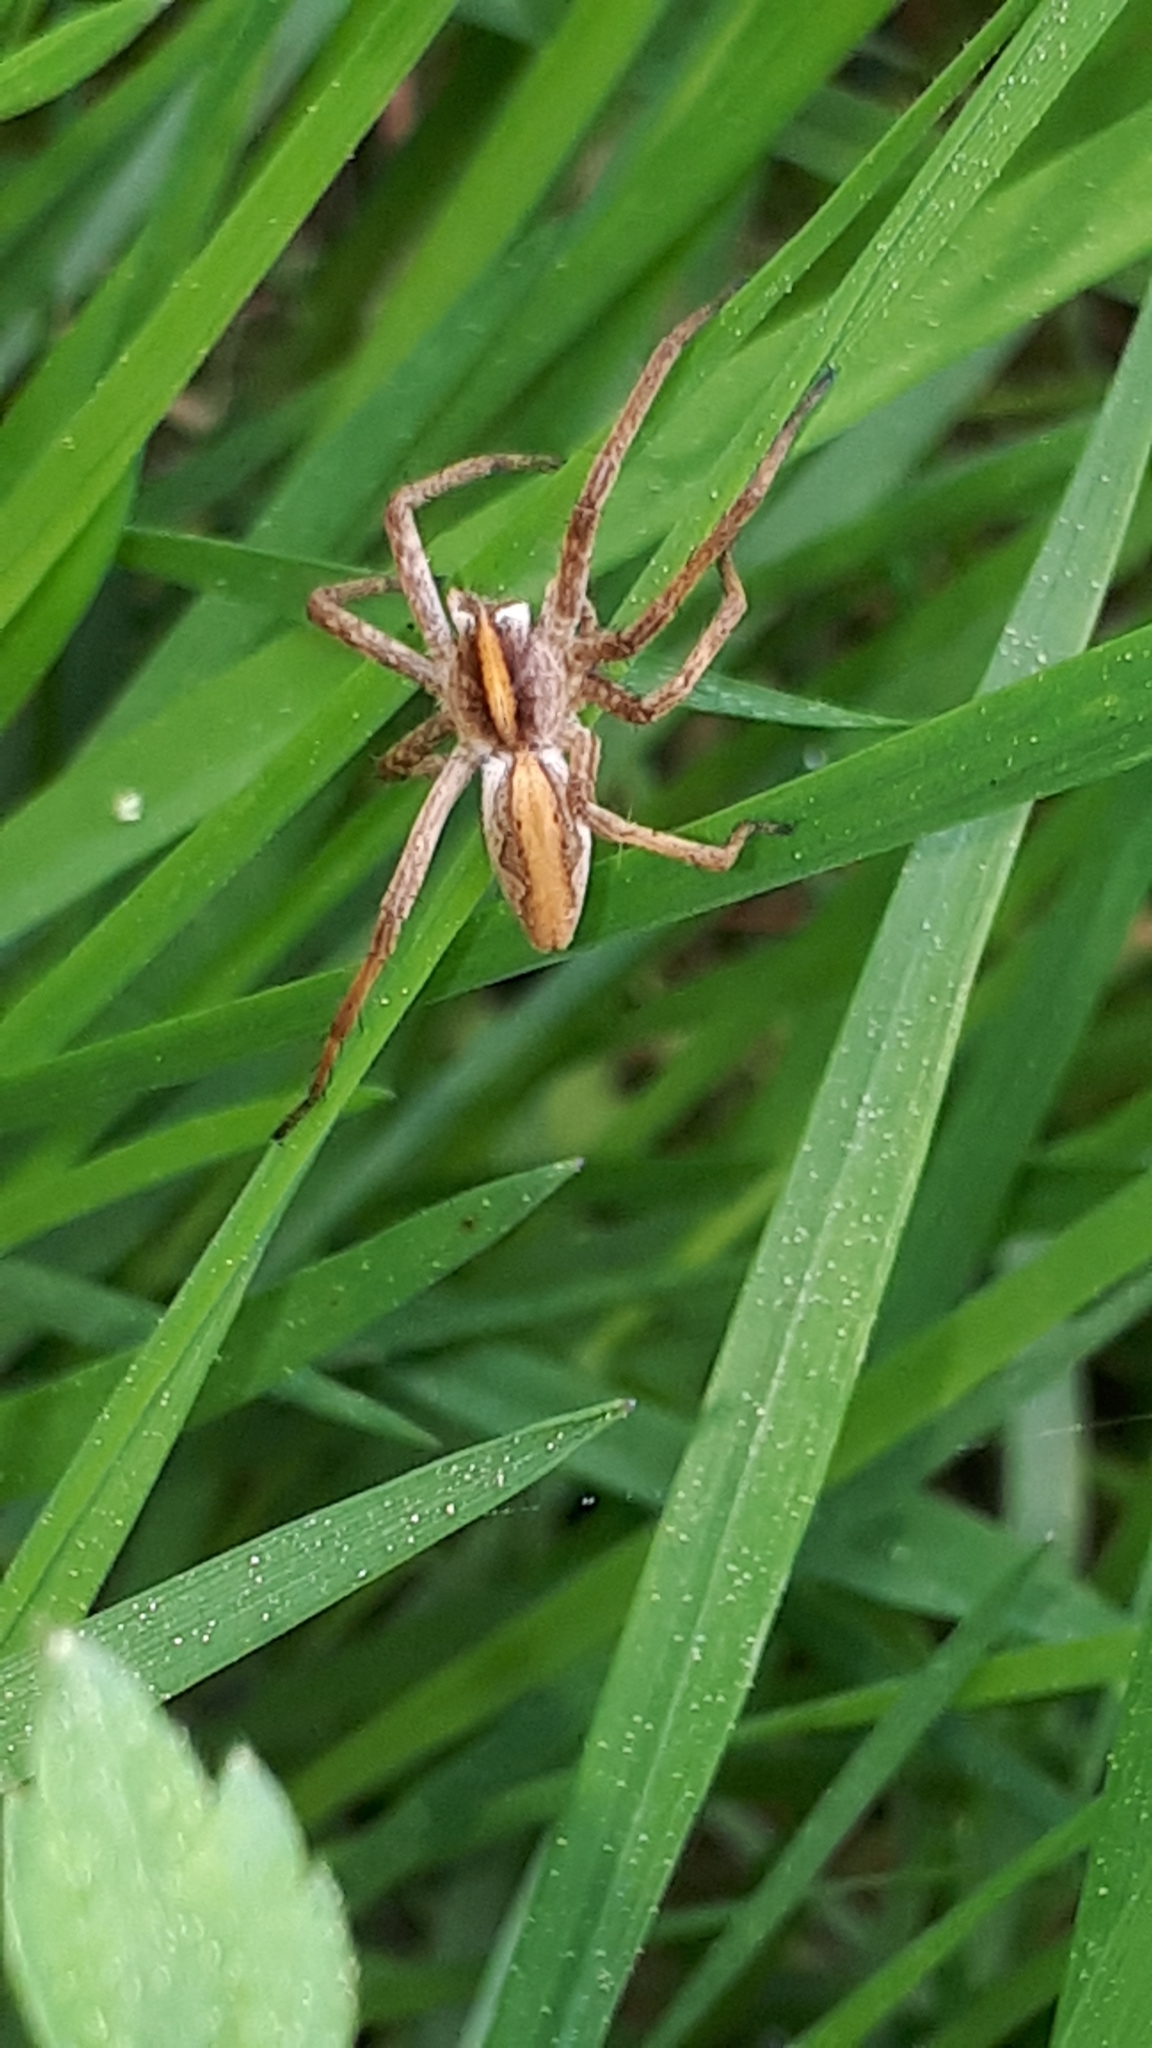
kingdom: Animalia
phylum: Arthropoda
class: Arachnida
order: Araneae
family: Pisauridae
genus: Pisaura
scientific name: Pisaura mirabilis
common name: Tent spider
